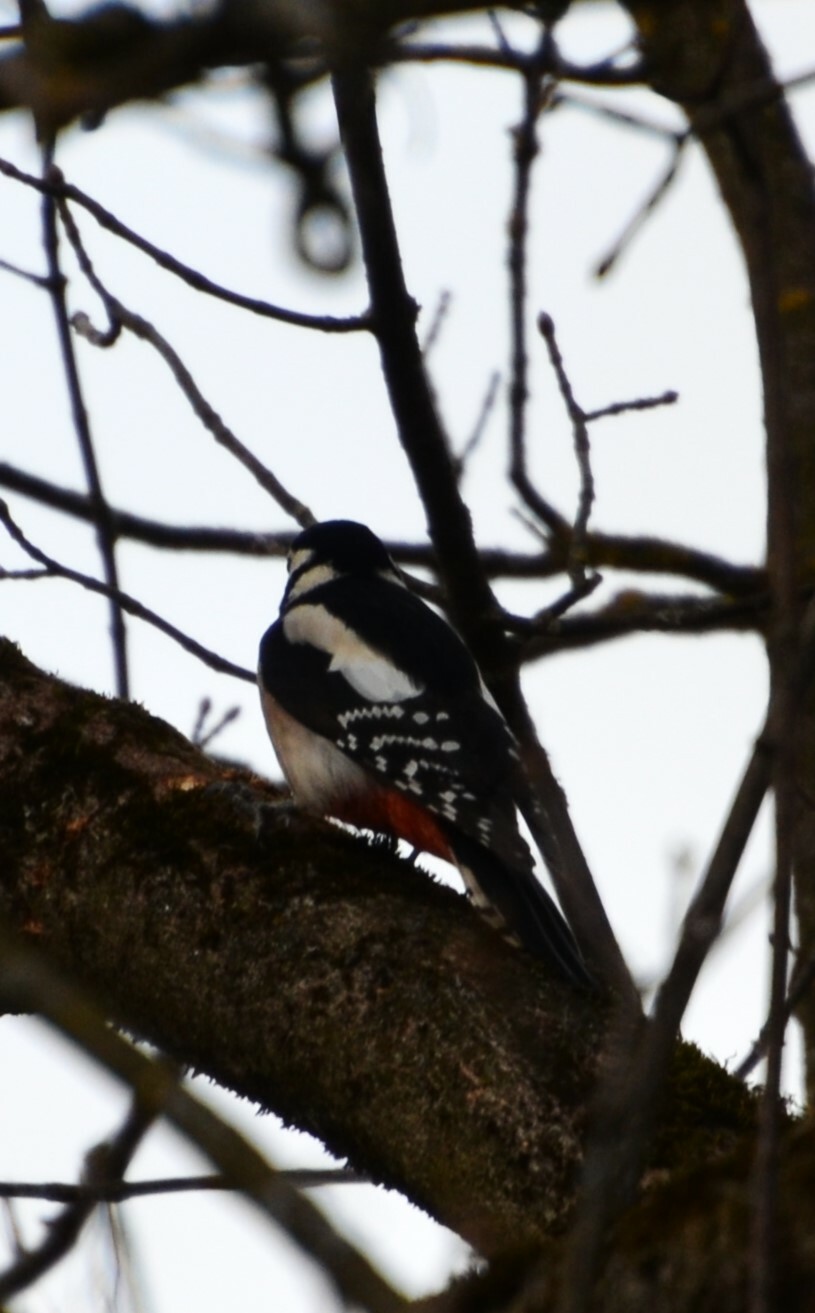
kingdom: Animalia
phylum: Chordata
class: Aves
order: Piciformes
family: Picidae
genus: Dendrocopos
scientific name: Dendrocopos major
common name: Great spotted woodpecker
